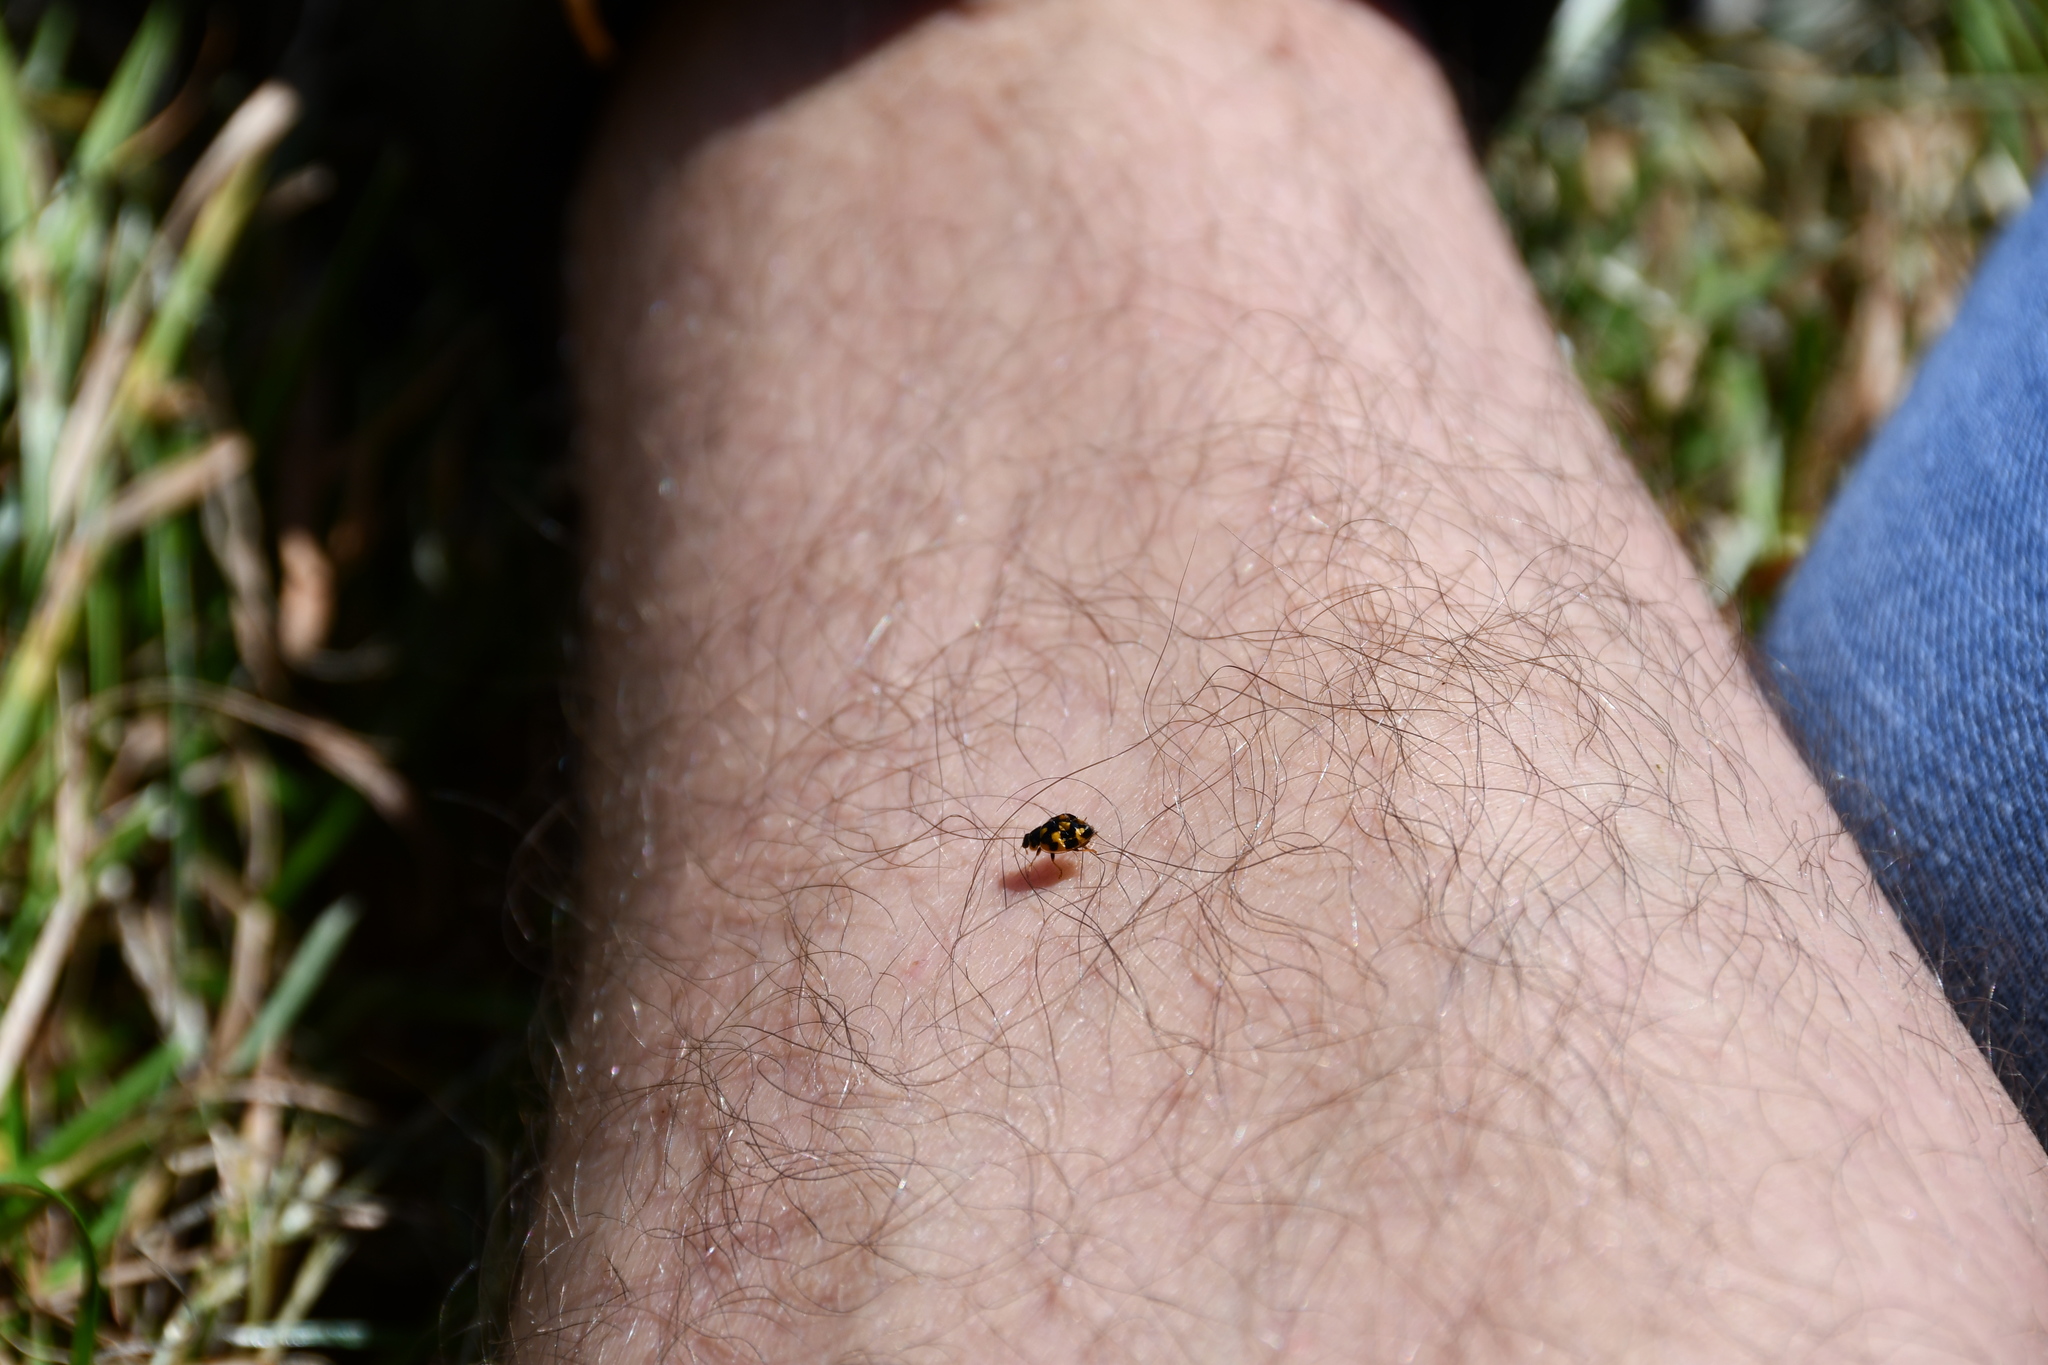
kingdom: Animalia
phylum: Arthropoda
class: Insecta
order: Coleoptera
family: Coccinellidae
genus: Propylaea
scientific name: Propylaea quatuordecimpunctata
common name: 14-spotted ladybird beetle
